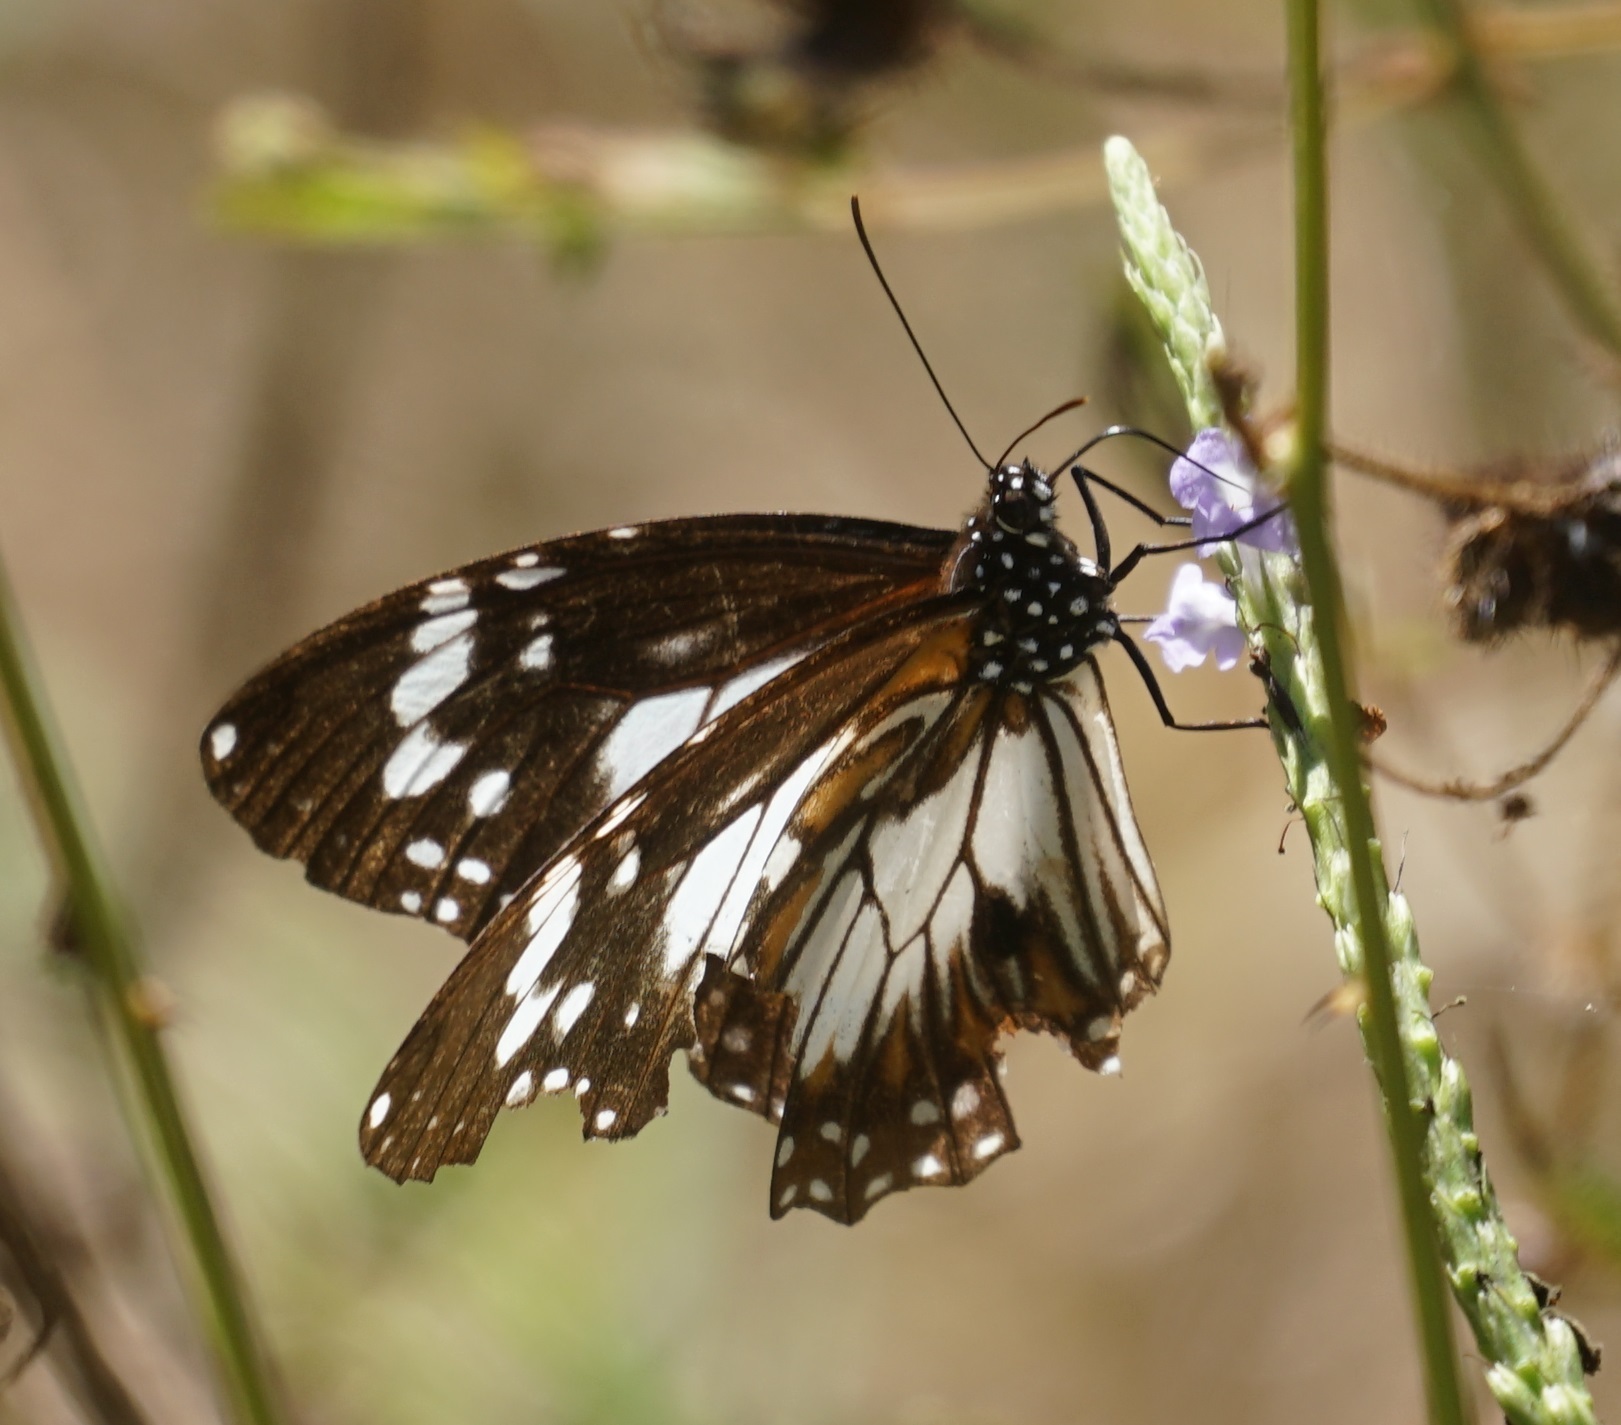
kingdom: Animalia
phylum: Arthropoda
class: Insecta
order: Lepidoptera
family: Nymphalidae
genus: Danaus
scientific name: Danaus affinis
